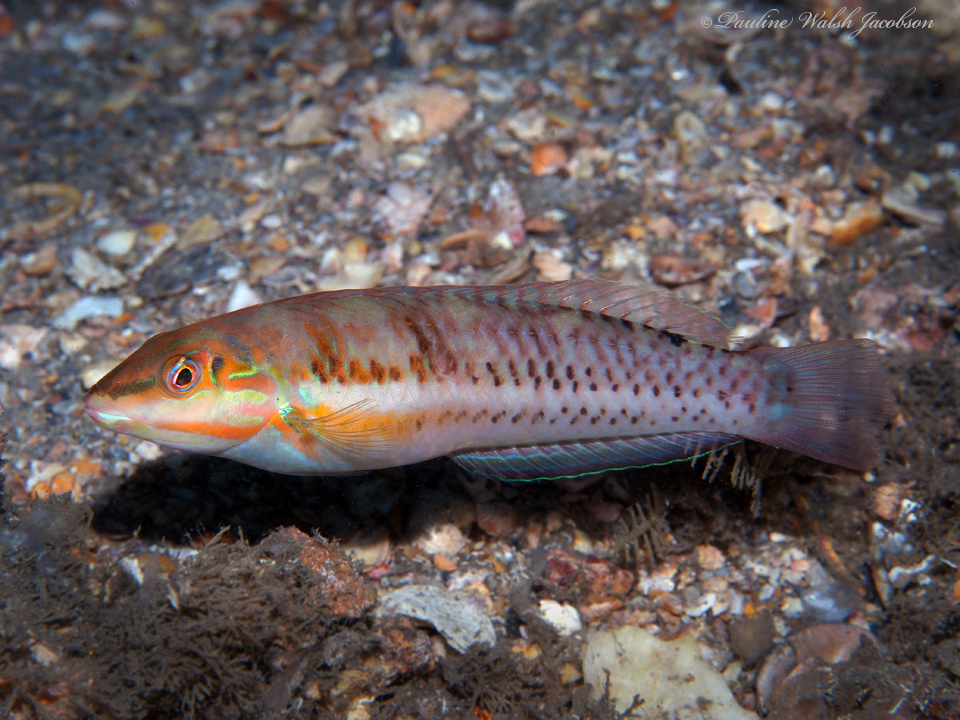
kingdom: Animalia
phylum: Chordata
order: Perciformes
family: Labridae
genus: Halichoeres
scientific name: Halichoeres poeyi
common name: Blackear wrasse
